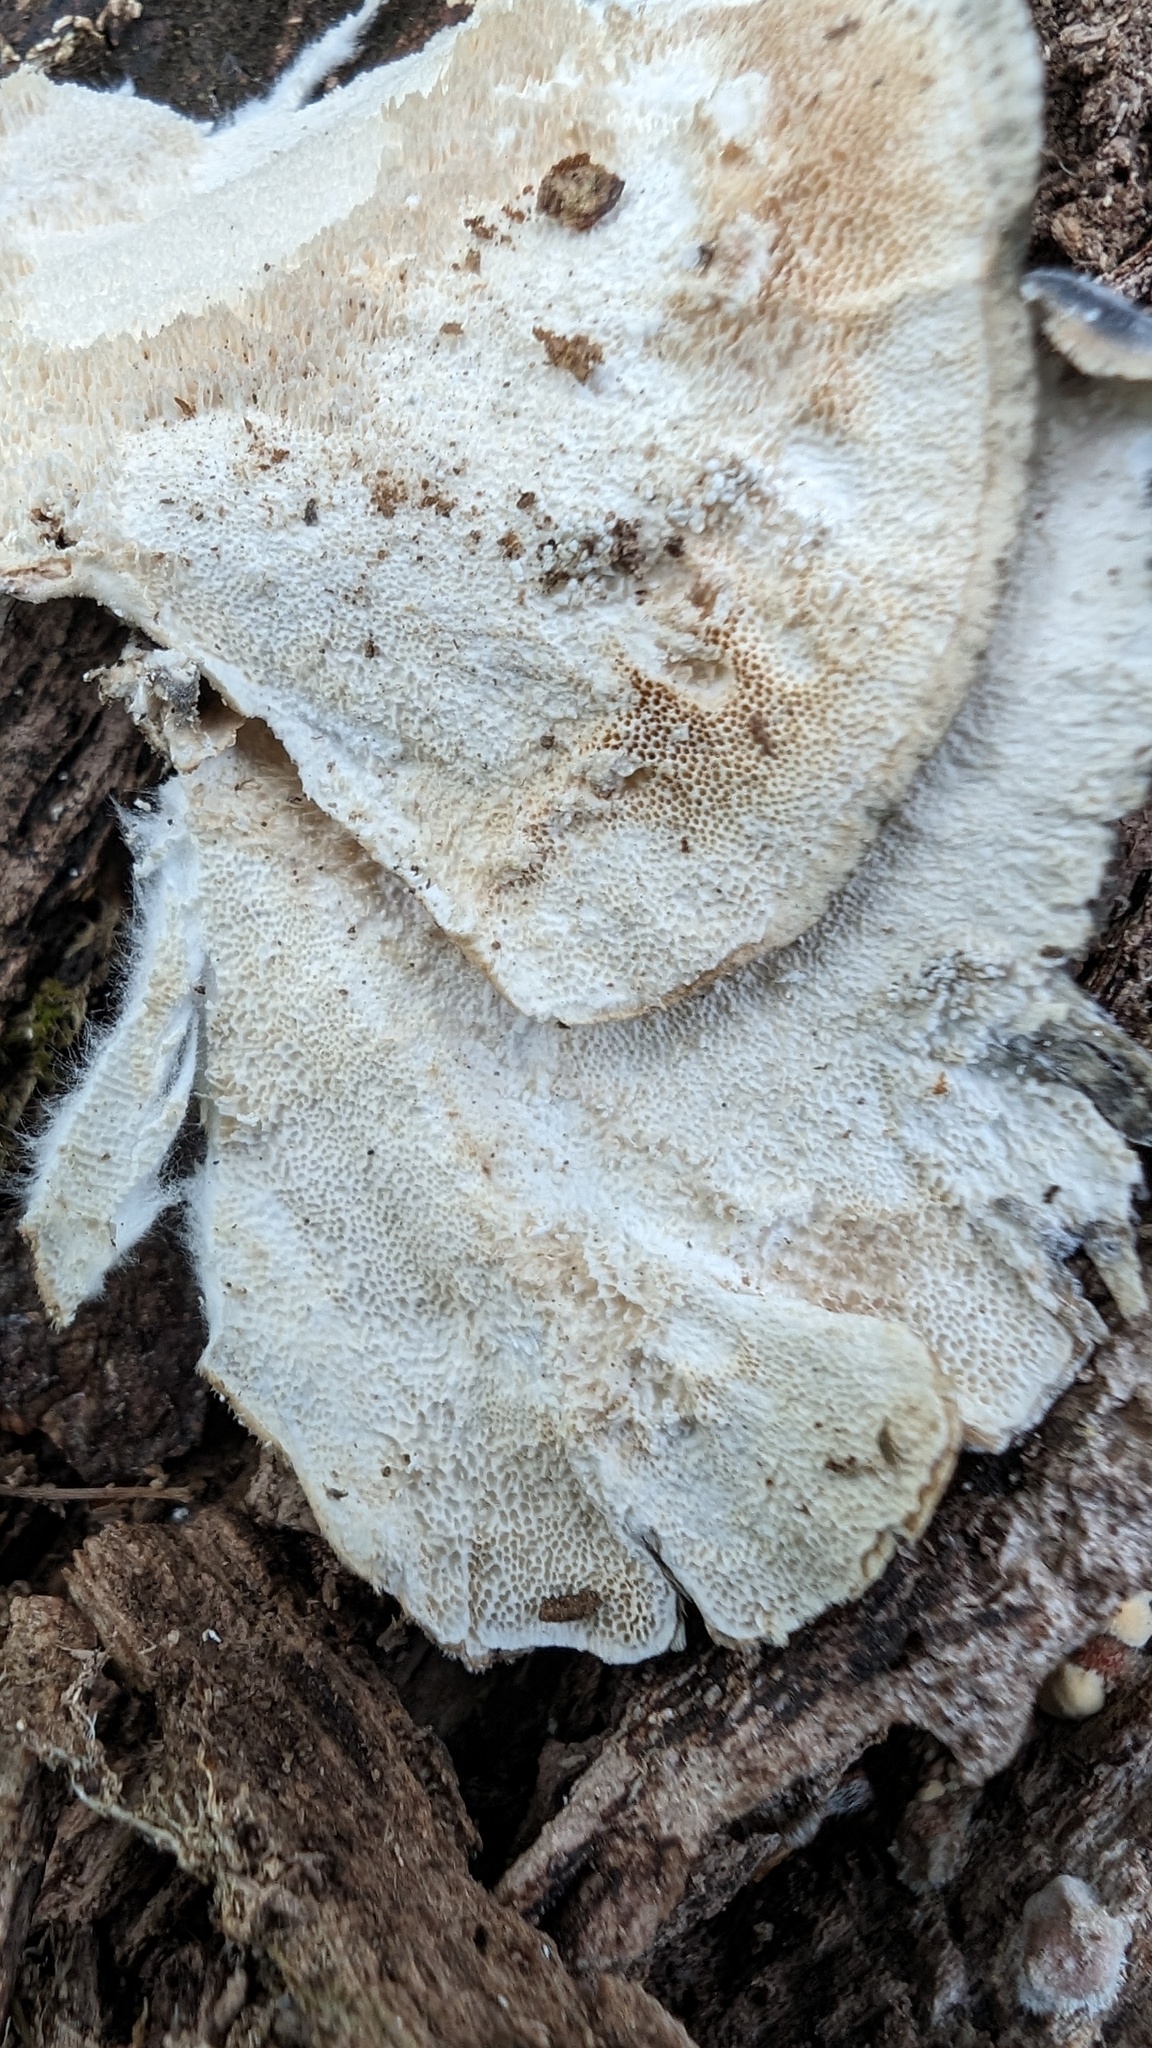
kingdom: Fungi
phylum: Basidiomycota
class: Agaricomycetes
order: Polyporales
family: Polyporaceae
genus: Trametes
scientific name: Trametes versicolor
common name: Turkeytail
